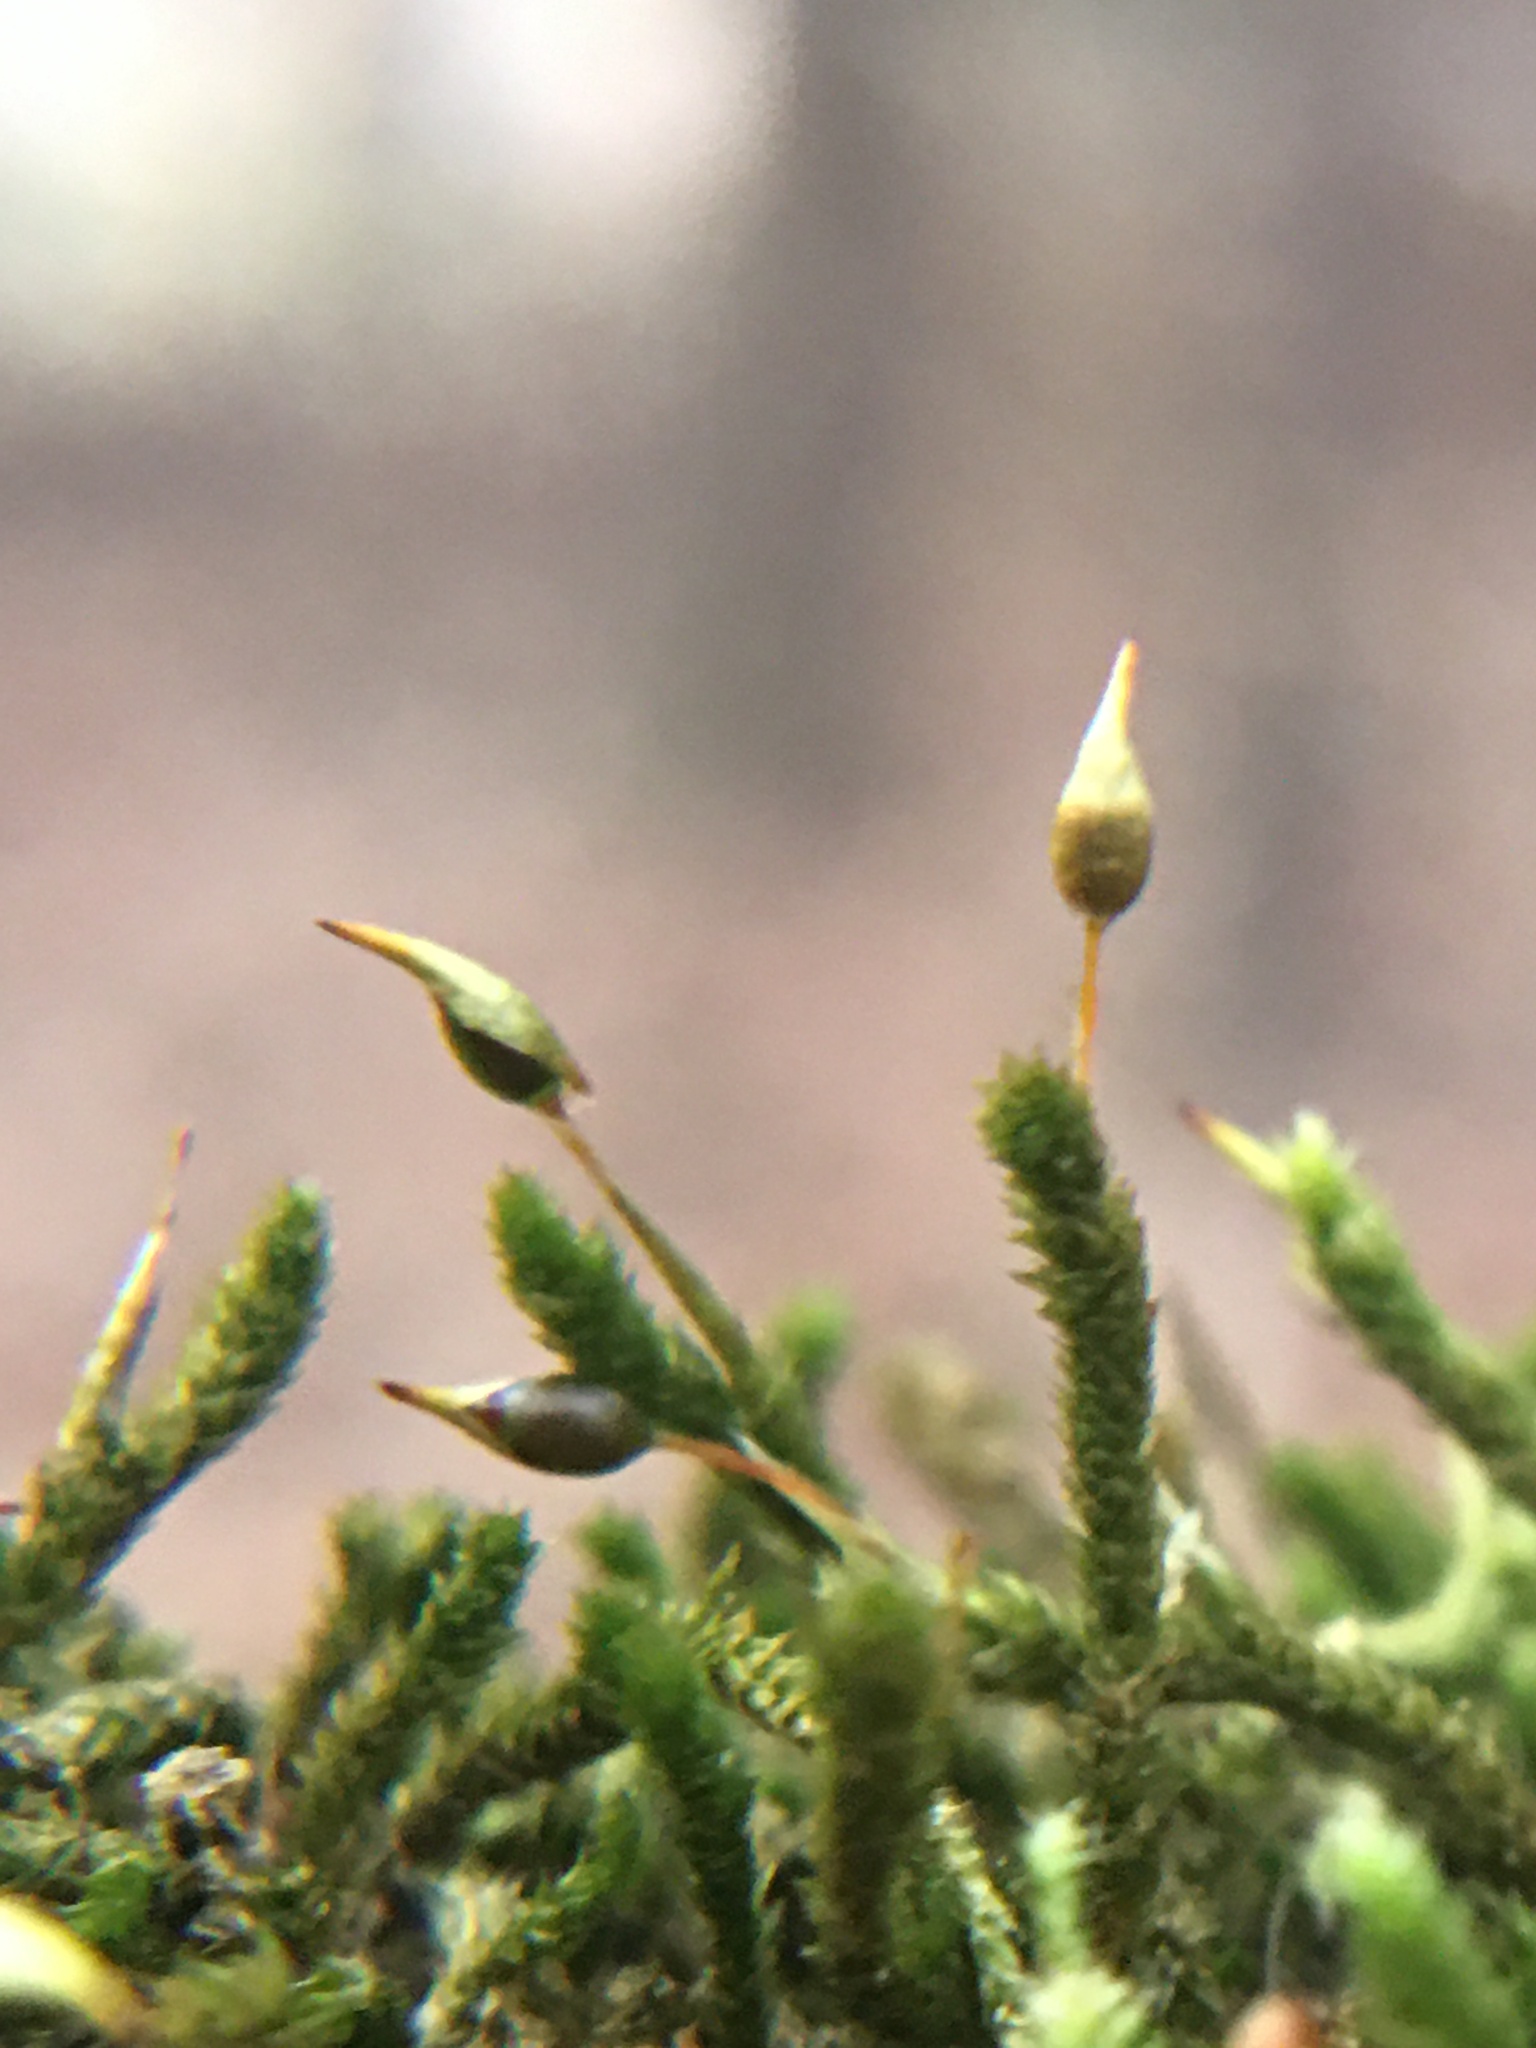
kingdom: Plantae
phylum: Bryophyta
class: Bryopsida
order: Hypnales
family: Leucodontaceae
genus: Leucodon
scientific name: Leucodon julaceus
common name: Smooth hook moss
